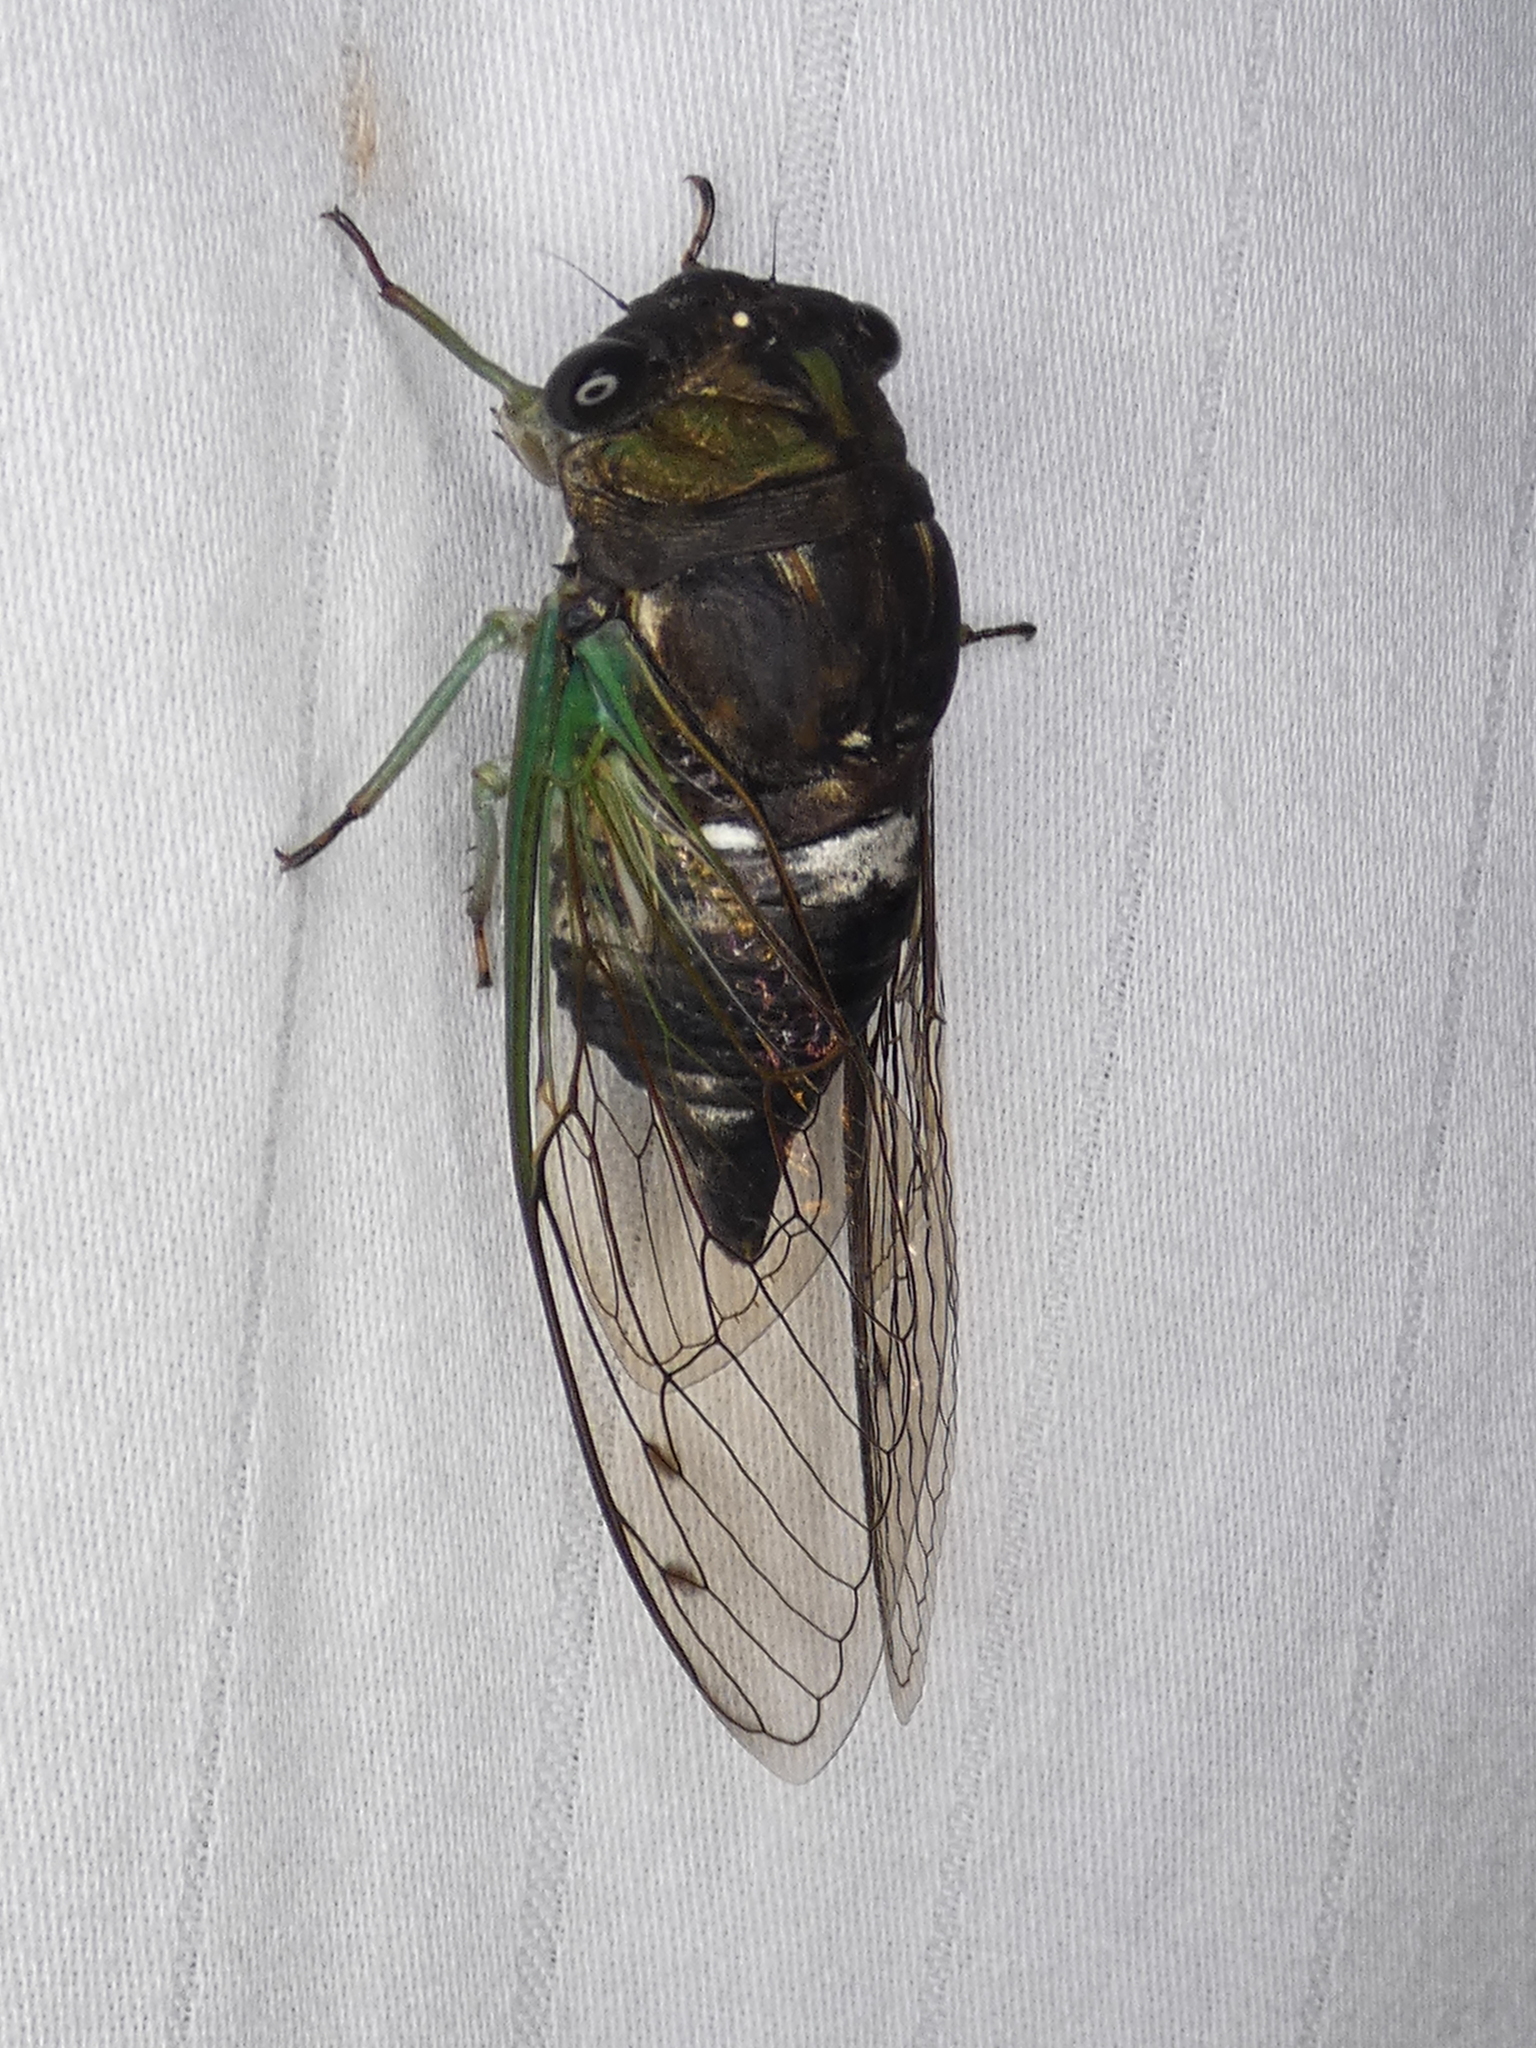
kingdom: Animalia
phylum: Arthropoda
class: Insecta
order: Hemiptera
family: Cicadidae
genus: Neotibicen
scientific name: Neotibicen tibicen
